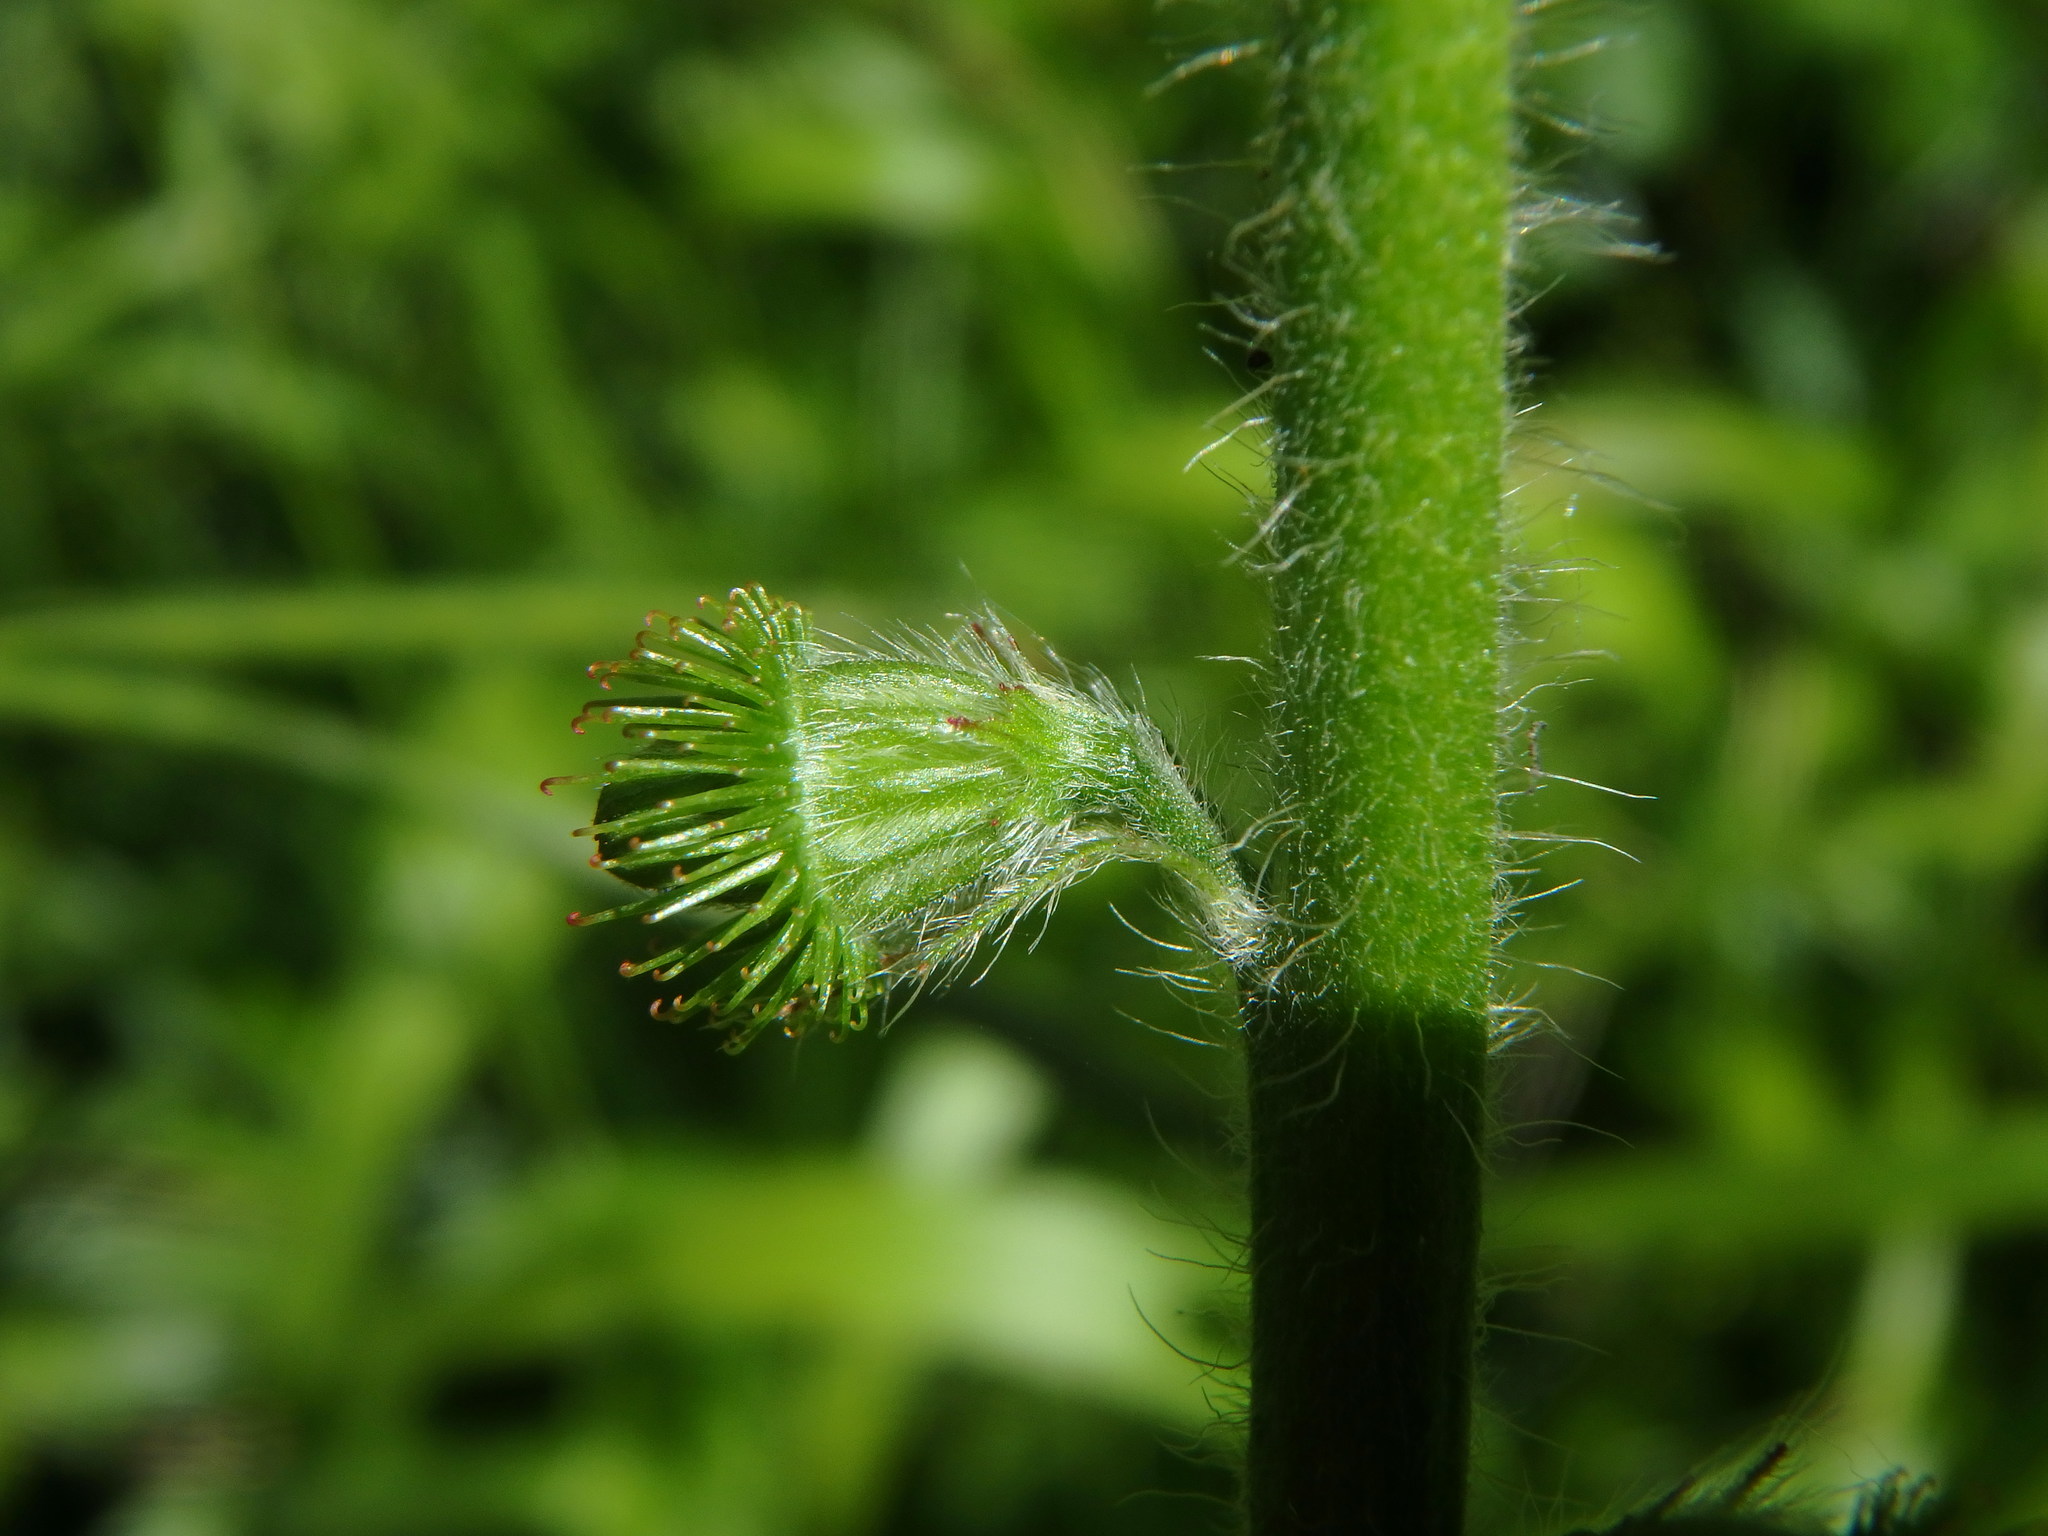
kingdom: Plantae
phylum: Tracheophyta
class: Magnoliopsida
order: Rosales
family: Rosaceae
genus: Agrimonia
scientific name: Agrimonia eupatoria
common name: Agrimony
